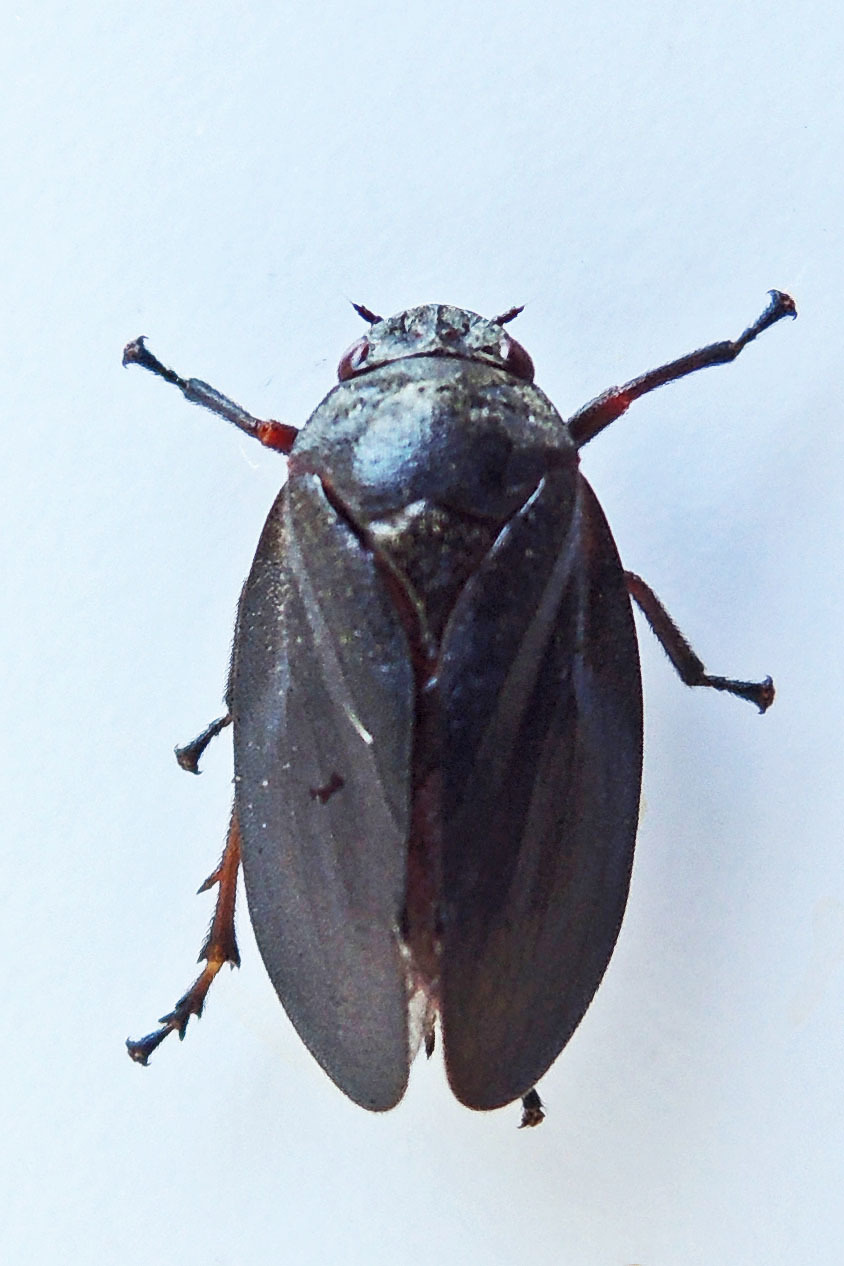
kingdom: Animalia
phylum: Arthropoda
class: Insecta
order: Hemiptera
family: Cercopidae
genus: Prosapia
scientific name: Prosapia ignipectus
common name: Black spittlebug
